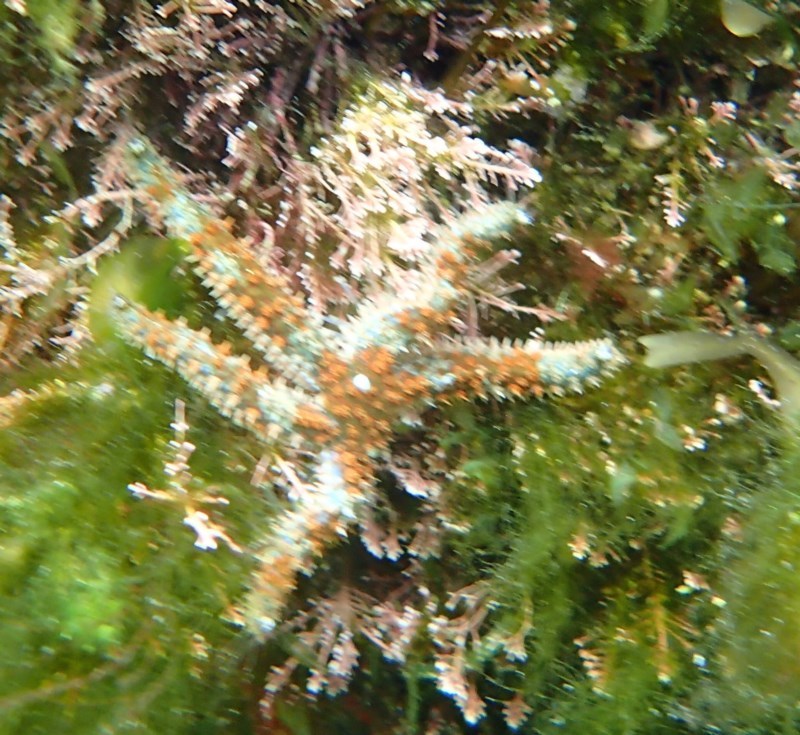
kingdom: Animalia
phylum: Echinodermata
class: Asteroidea
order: Forcipulatida
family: Asteriidae
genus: Coscinasterias
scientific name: Coscinasterias muricata
